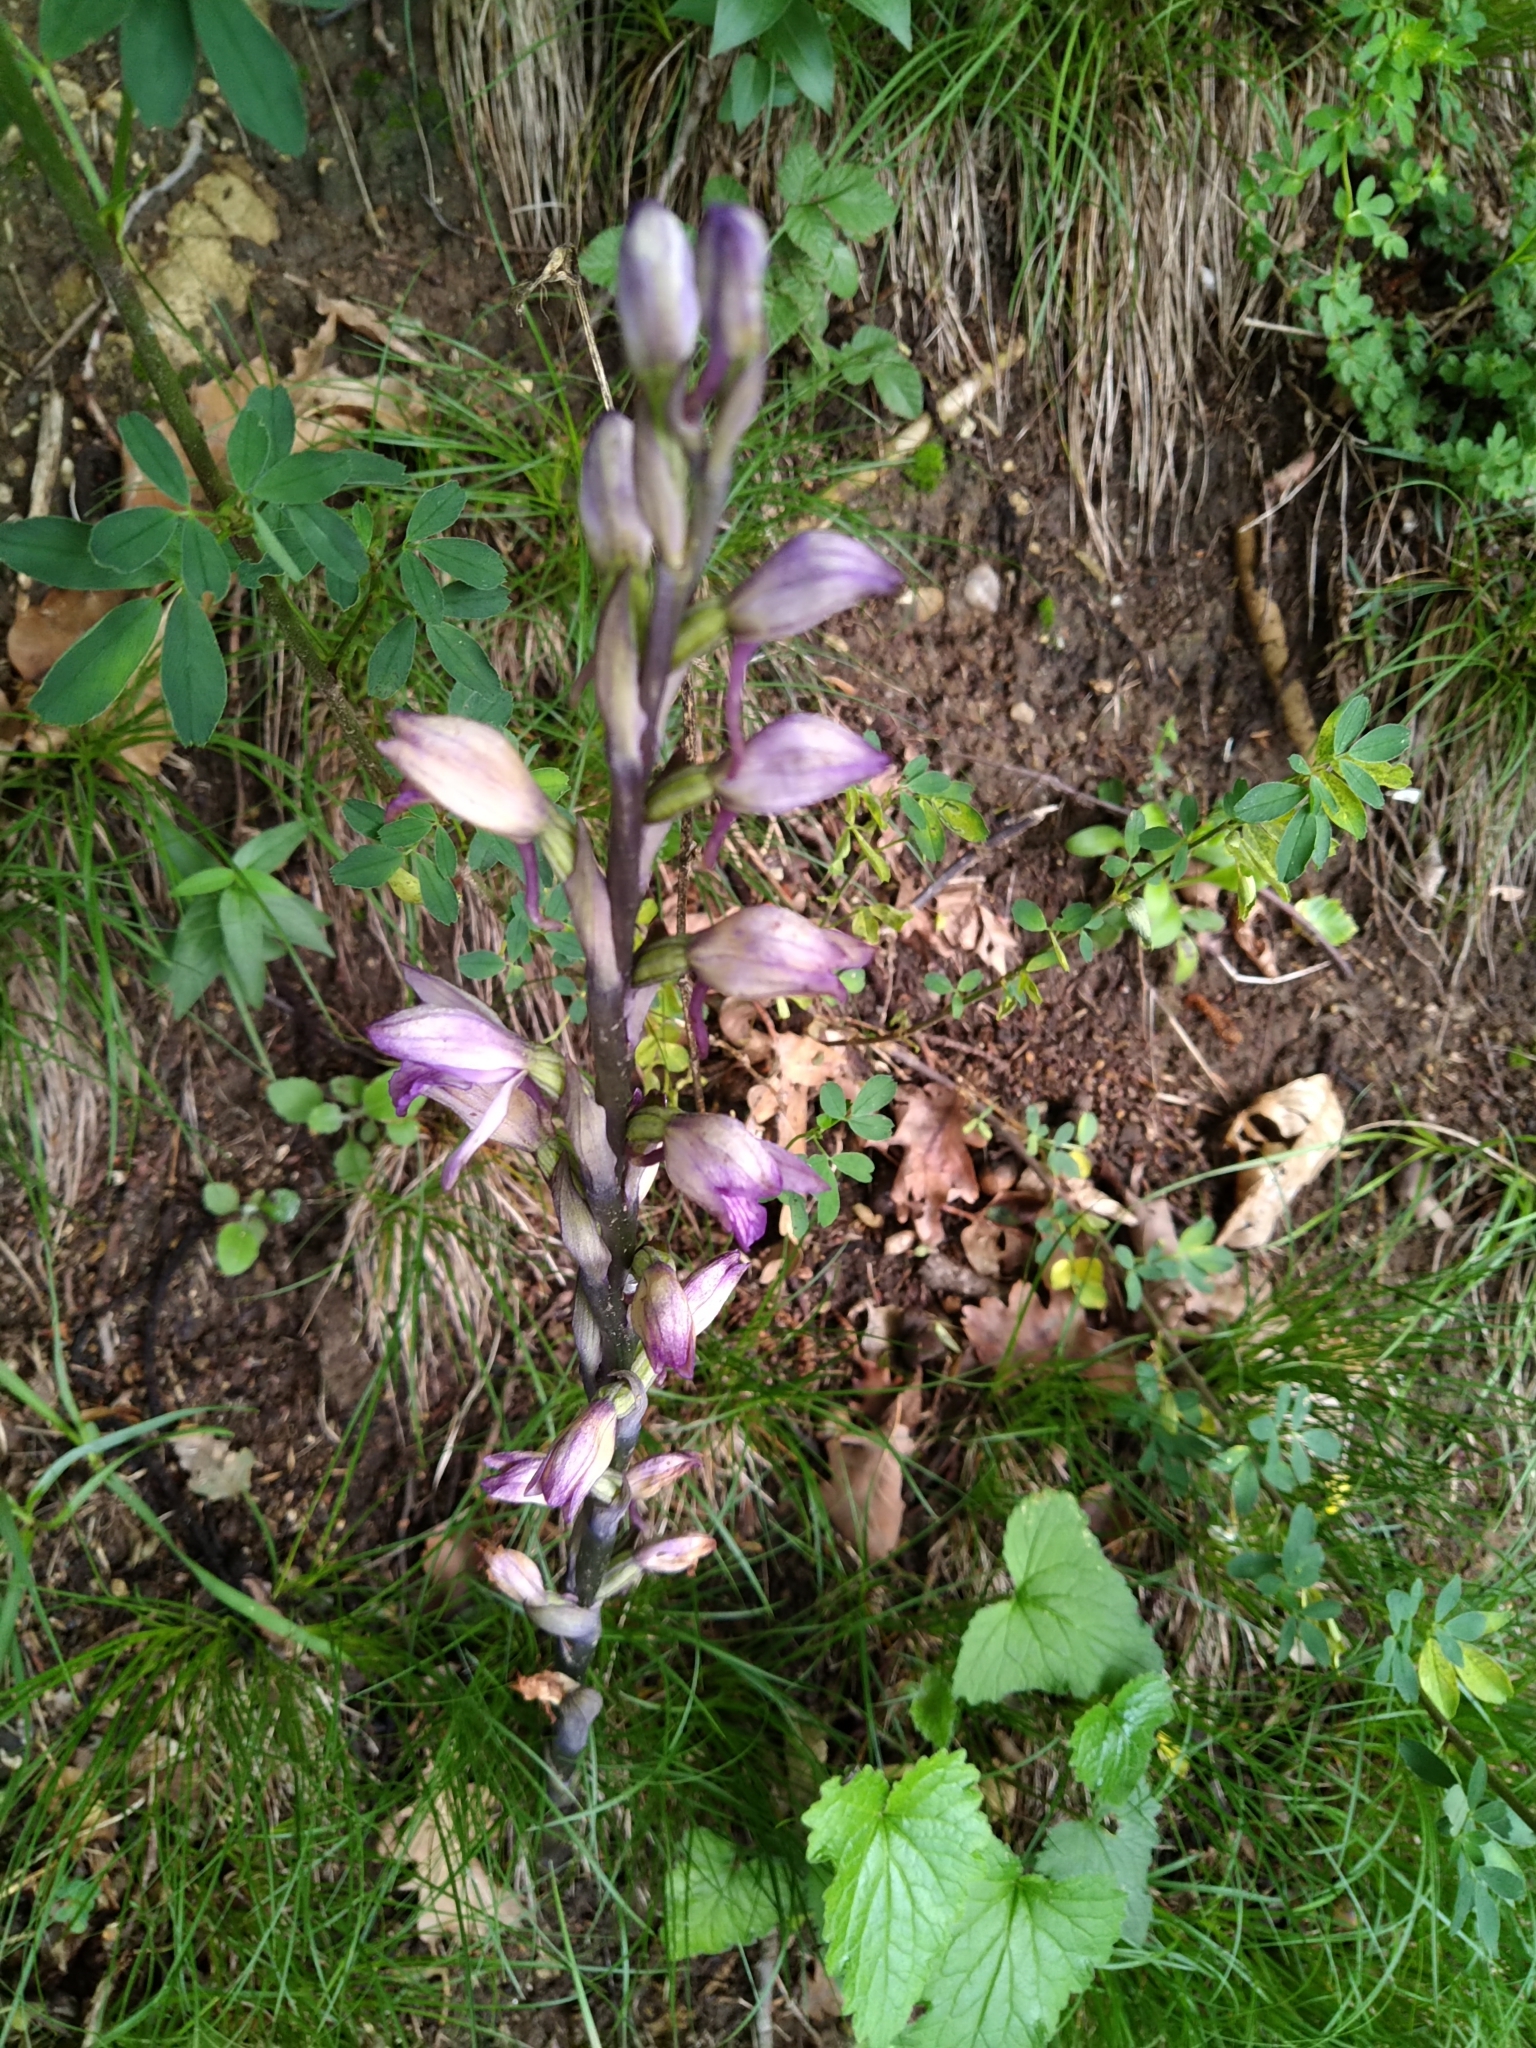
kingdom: Plantae
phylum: Tracheophyta
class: Liliopsida
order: Asparagales
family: Orchidaceae
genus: Limodorum
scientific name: Limodorum abortivum
